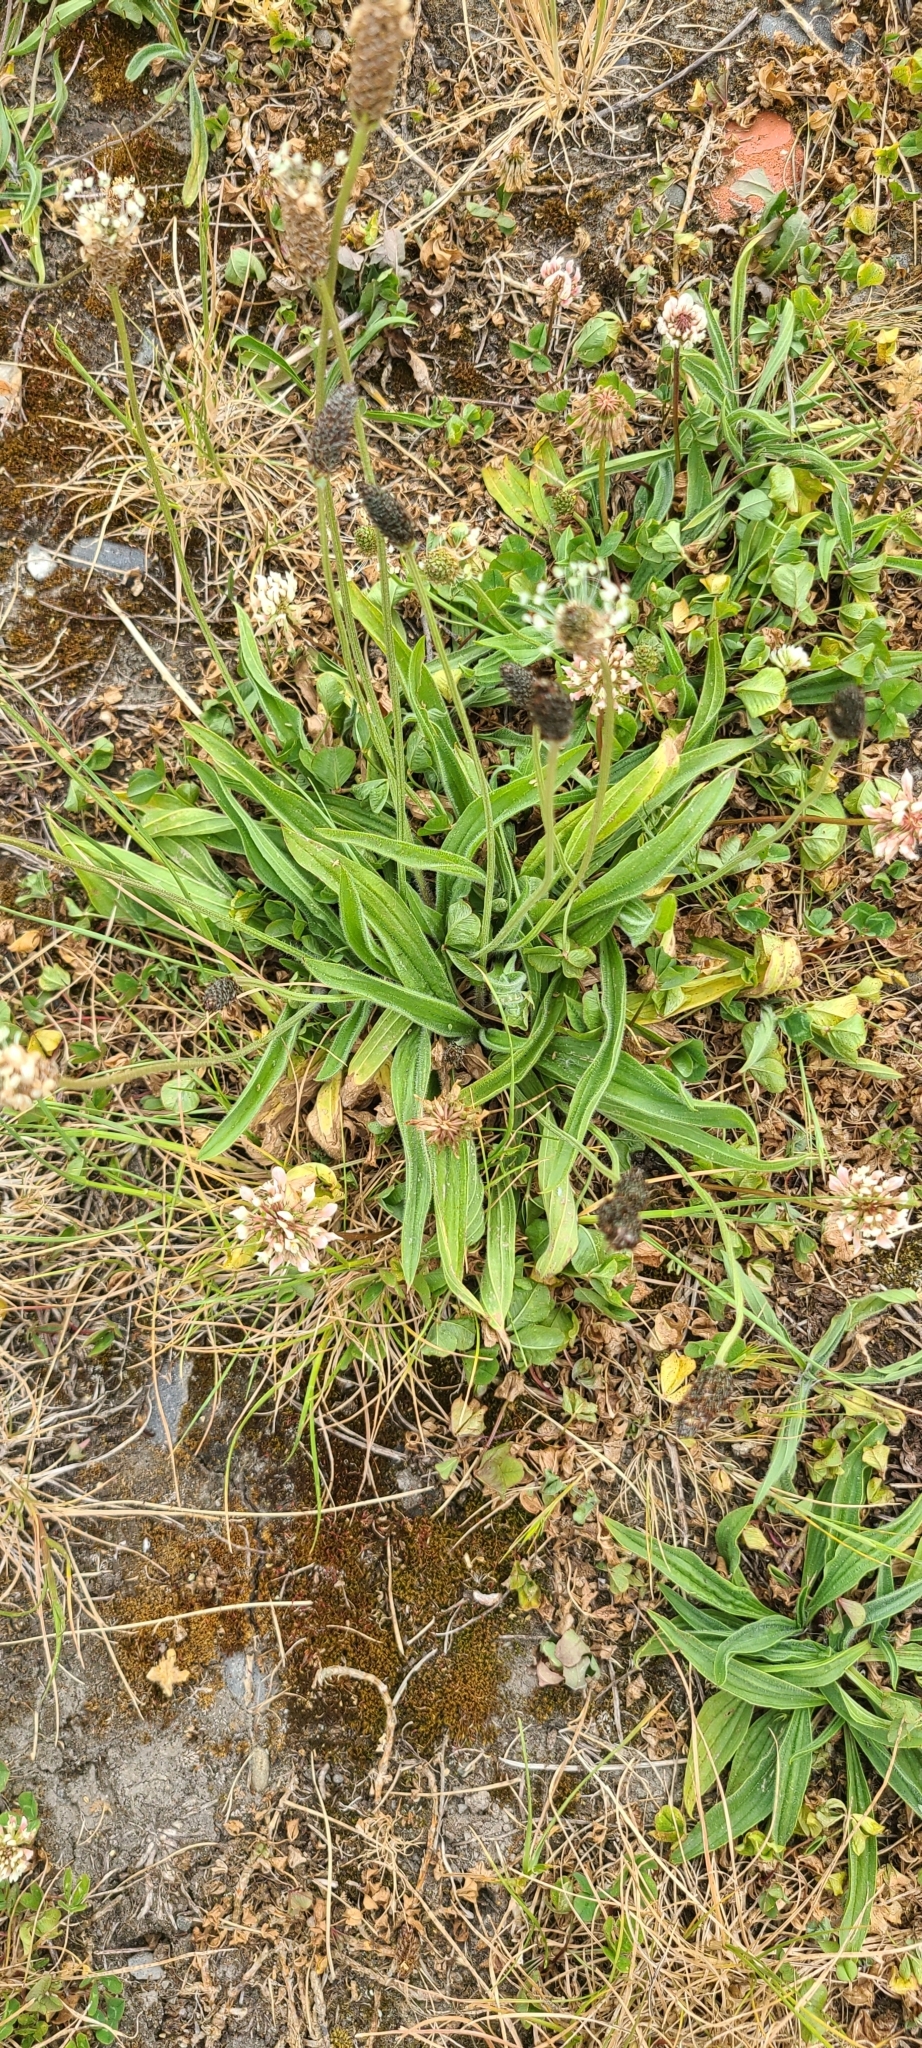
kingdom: Plantae
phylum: Tracheophyta
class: Magnoliopsida
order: Lamiales
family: Plantaginaceae
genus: Plantago
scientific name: Plantago lanceolata
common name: Ribwort plantain
